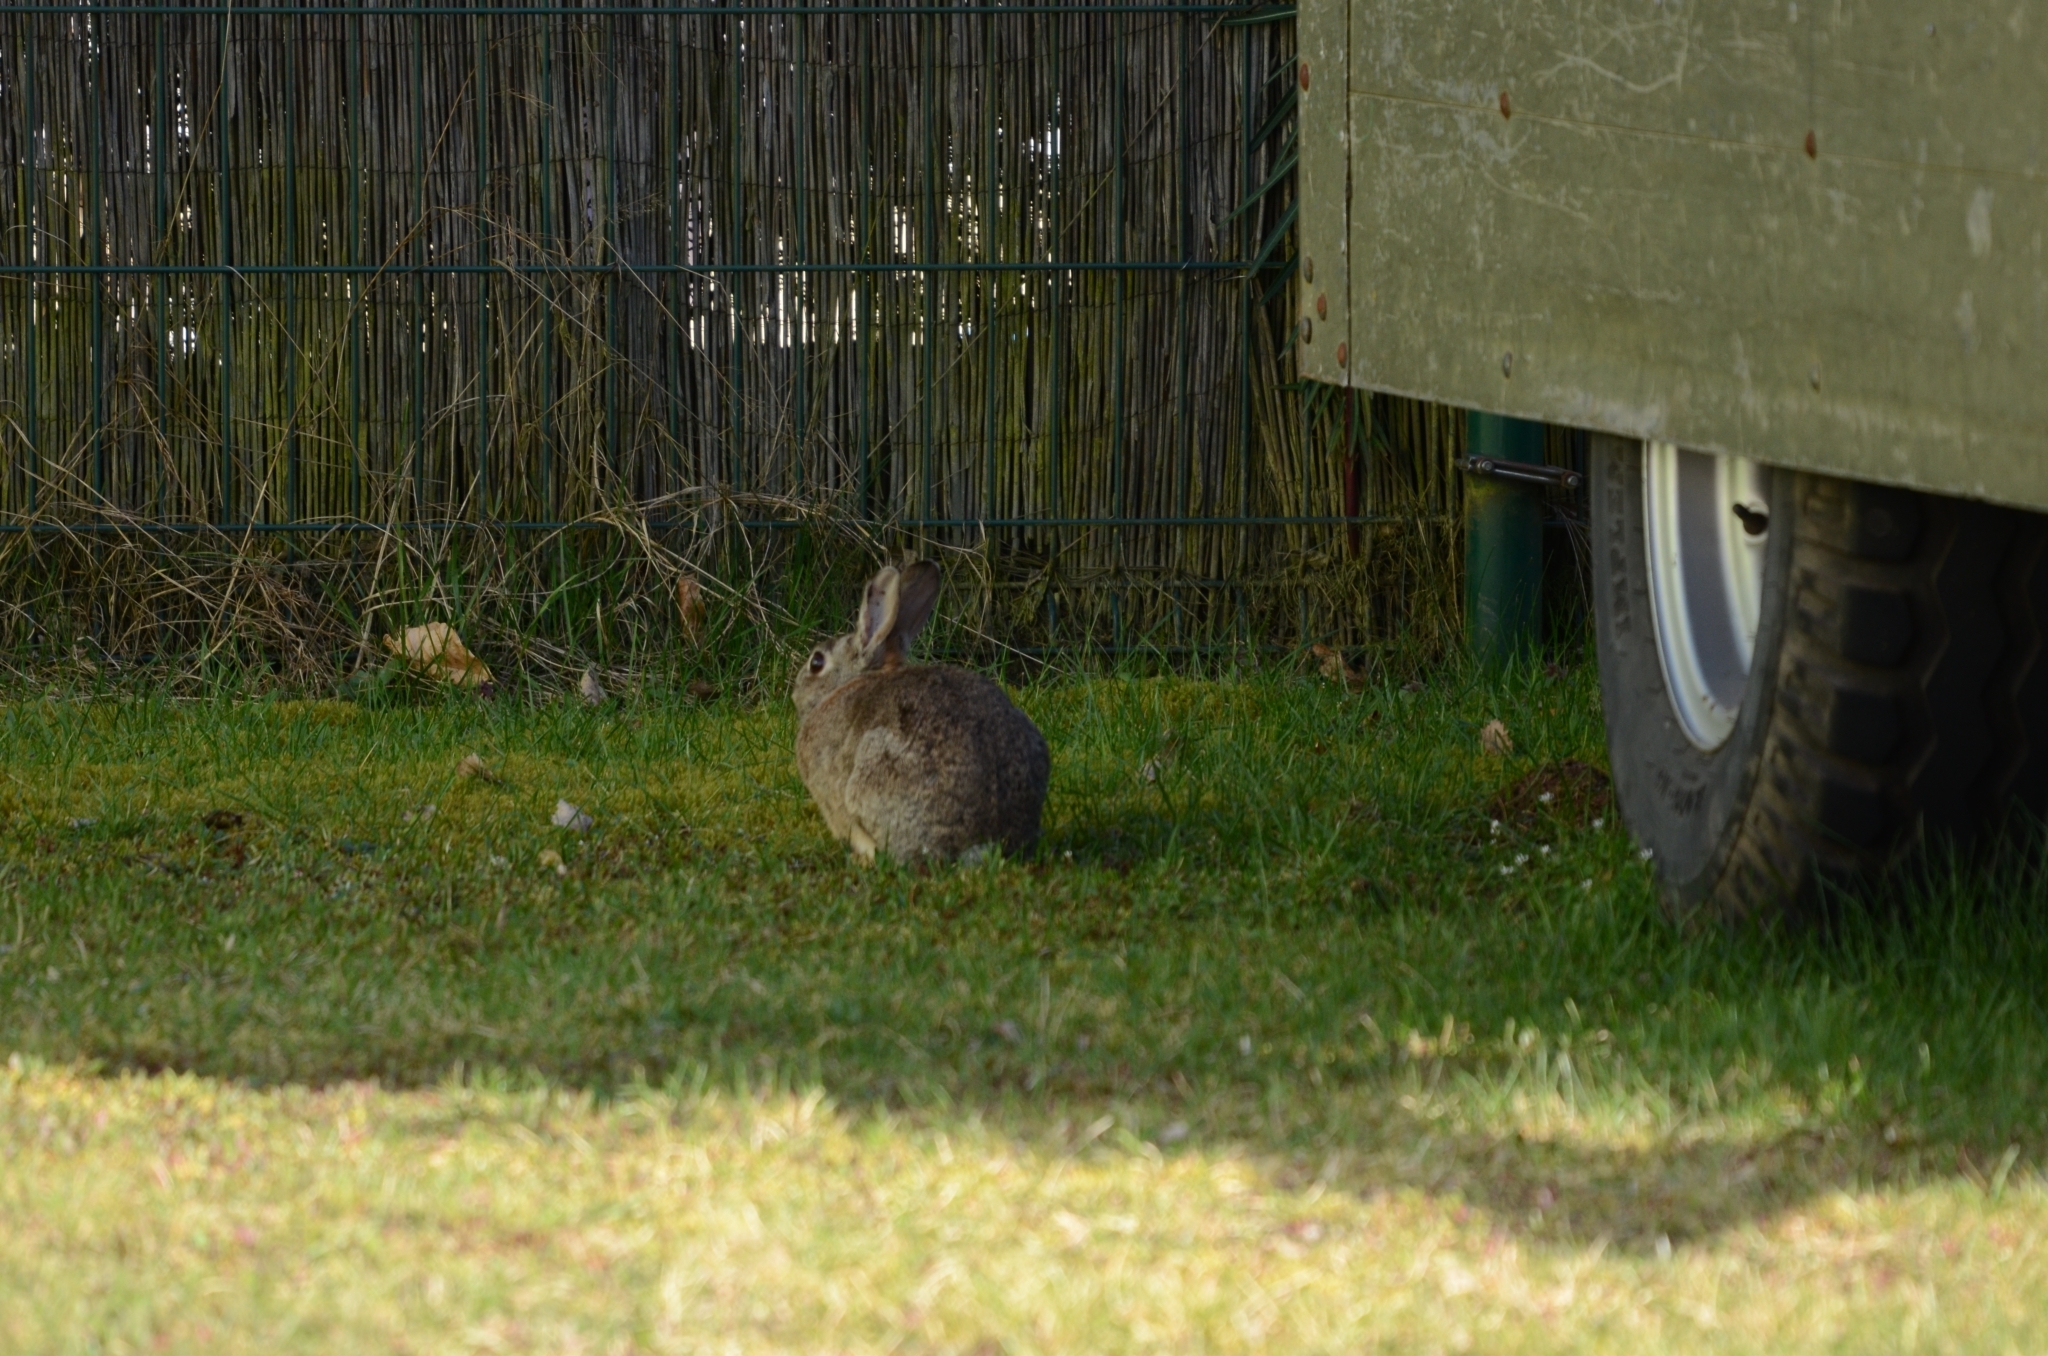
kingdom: Animalia
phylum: Chordata
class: Mammalia
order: Lagomorpha
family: Leporidae
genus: Oryctolagus
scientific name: Oryctolagus cuniculus
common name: European rabbit
